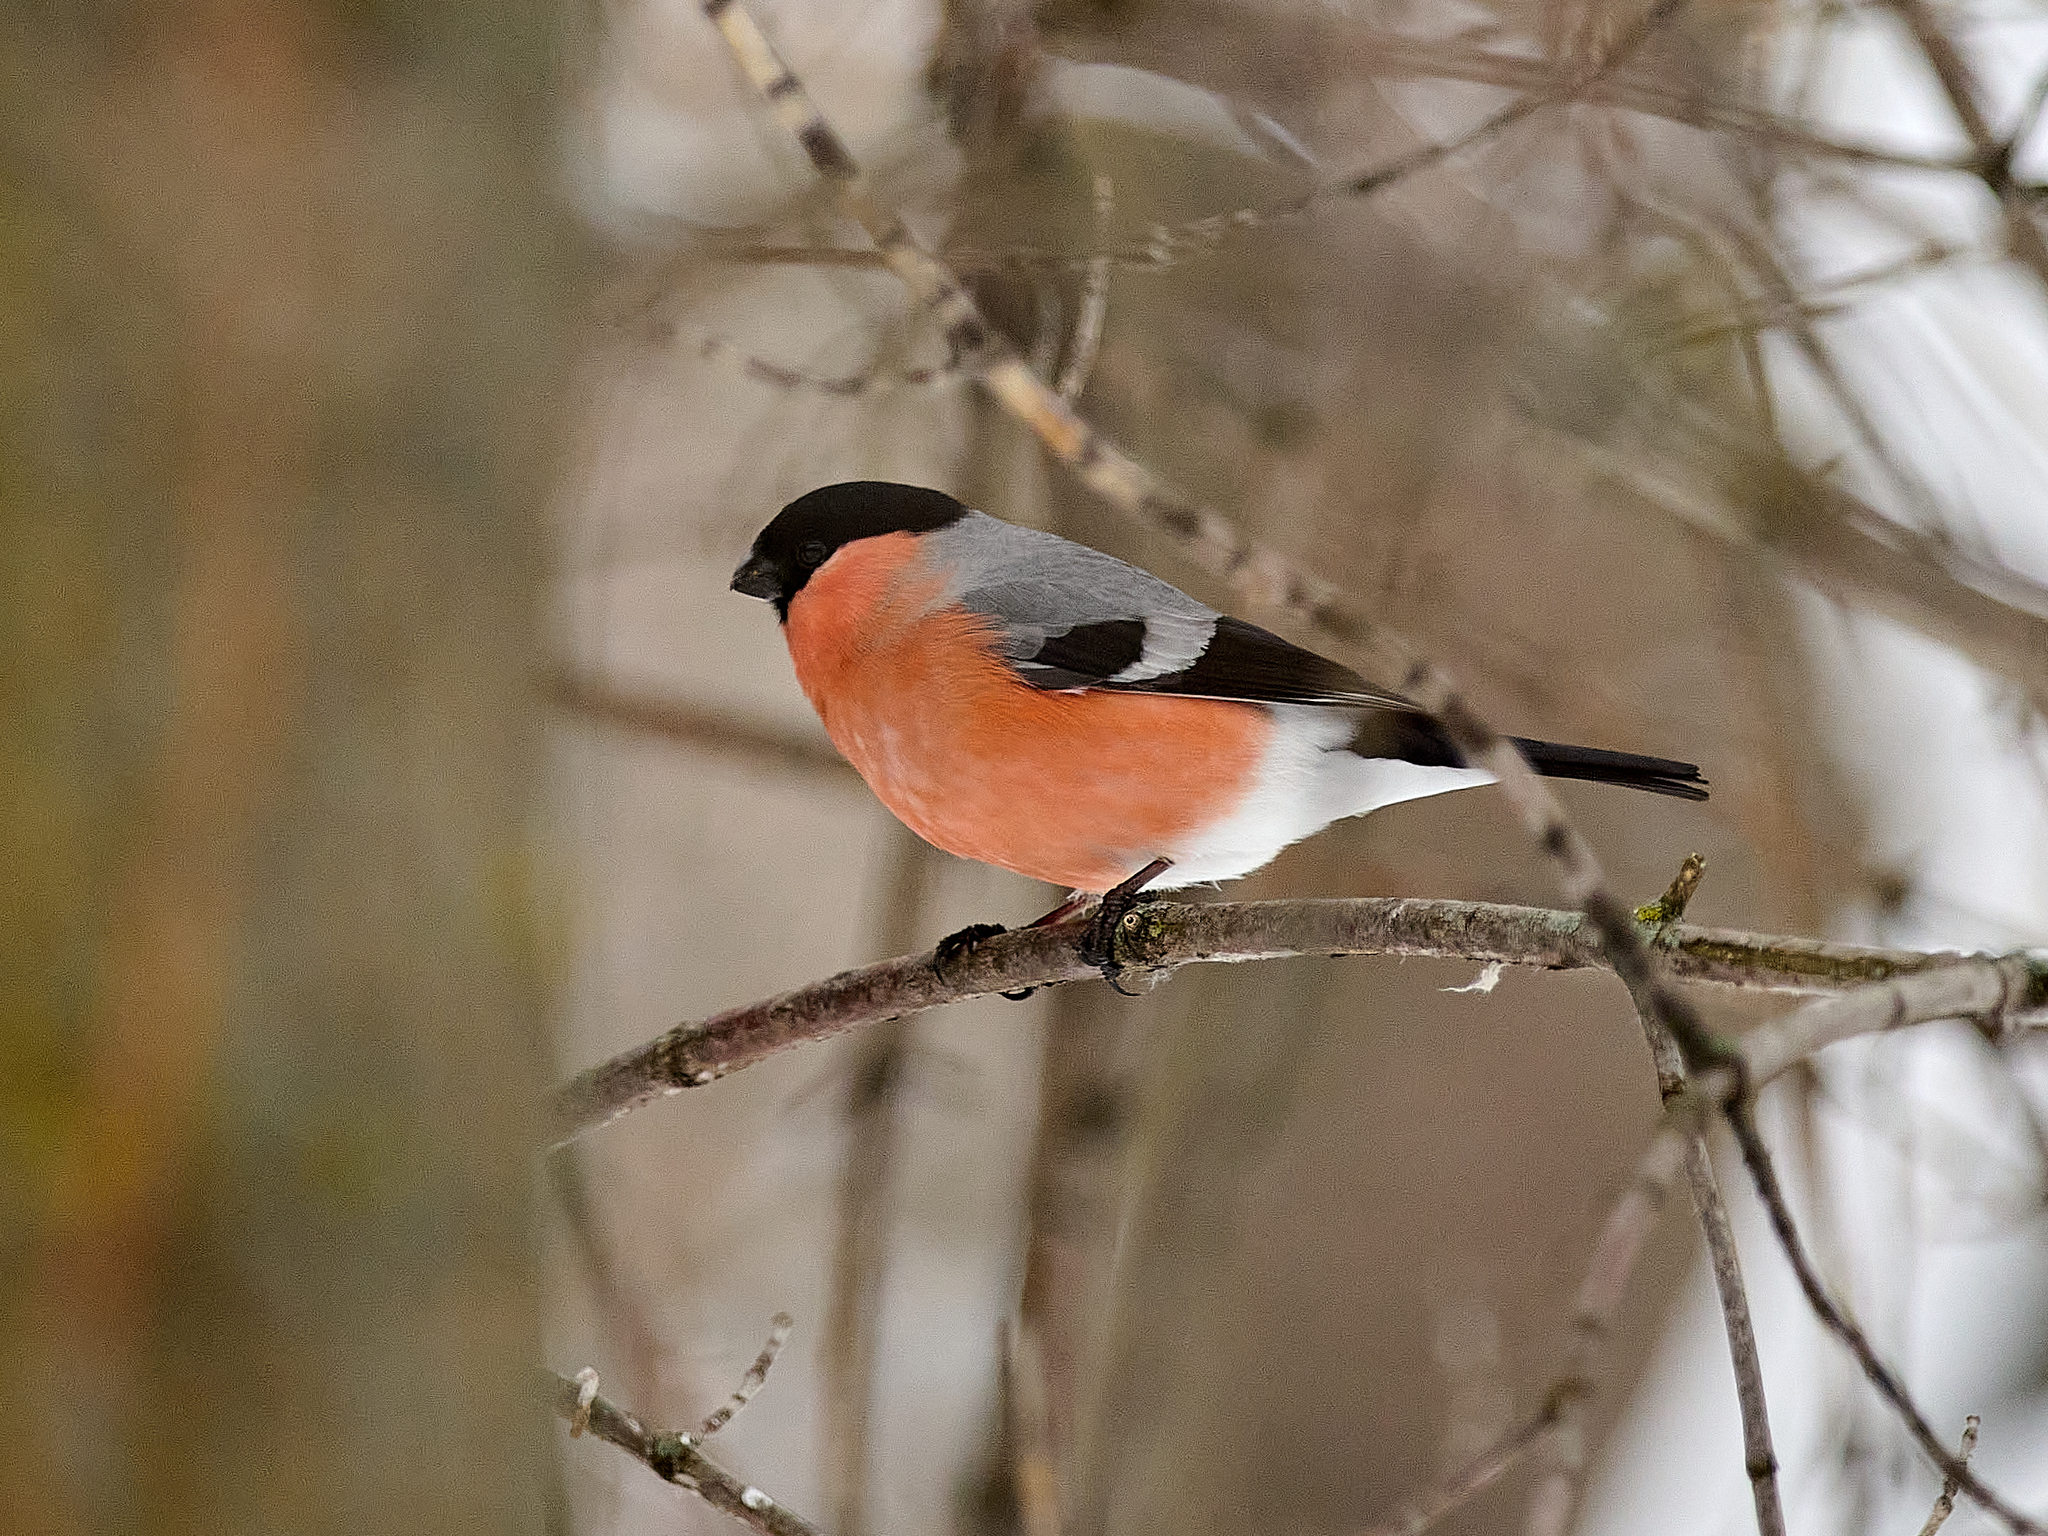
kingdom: Animalia
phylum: Chordata
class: Aves
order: Passeriformes
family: Fringillidae
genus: Pyrrhula
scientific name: Pyrrhula pyrrhula
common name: Eurasian bullfinch
